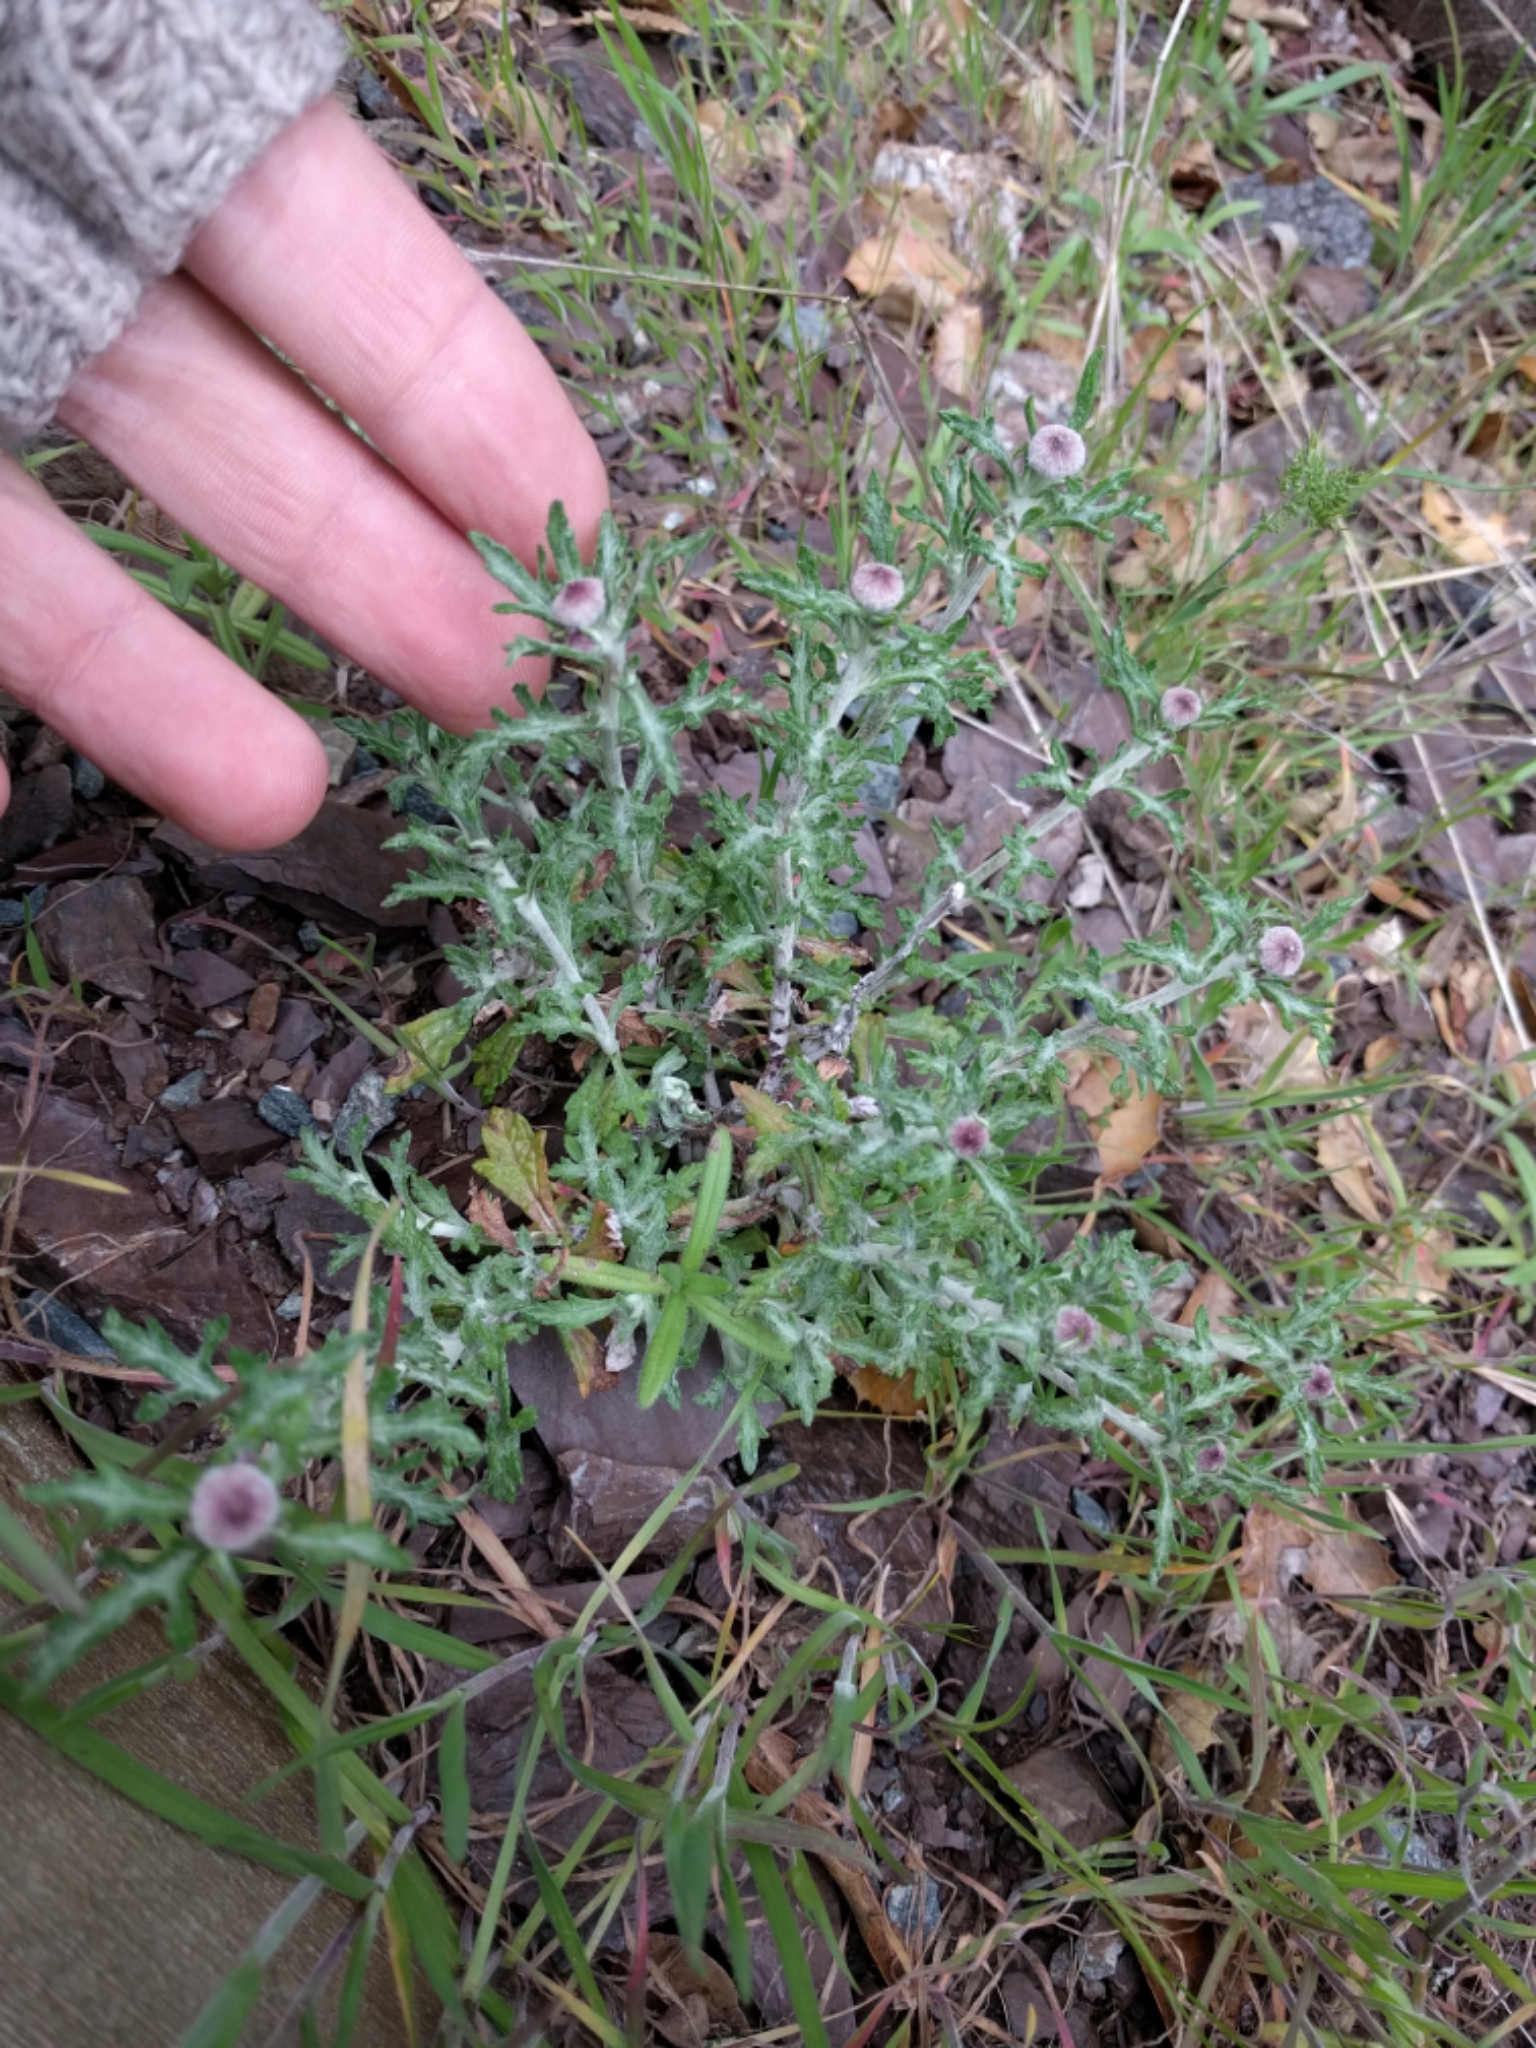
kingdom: Plantae
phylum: Tracheophyta
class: Magnoliopsida
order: Asterales
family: Asteraceae
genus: Eriophyllum
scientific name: Eriophyllum lanatum
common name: Common woolly-sunflower
